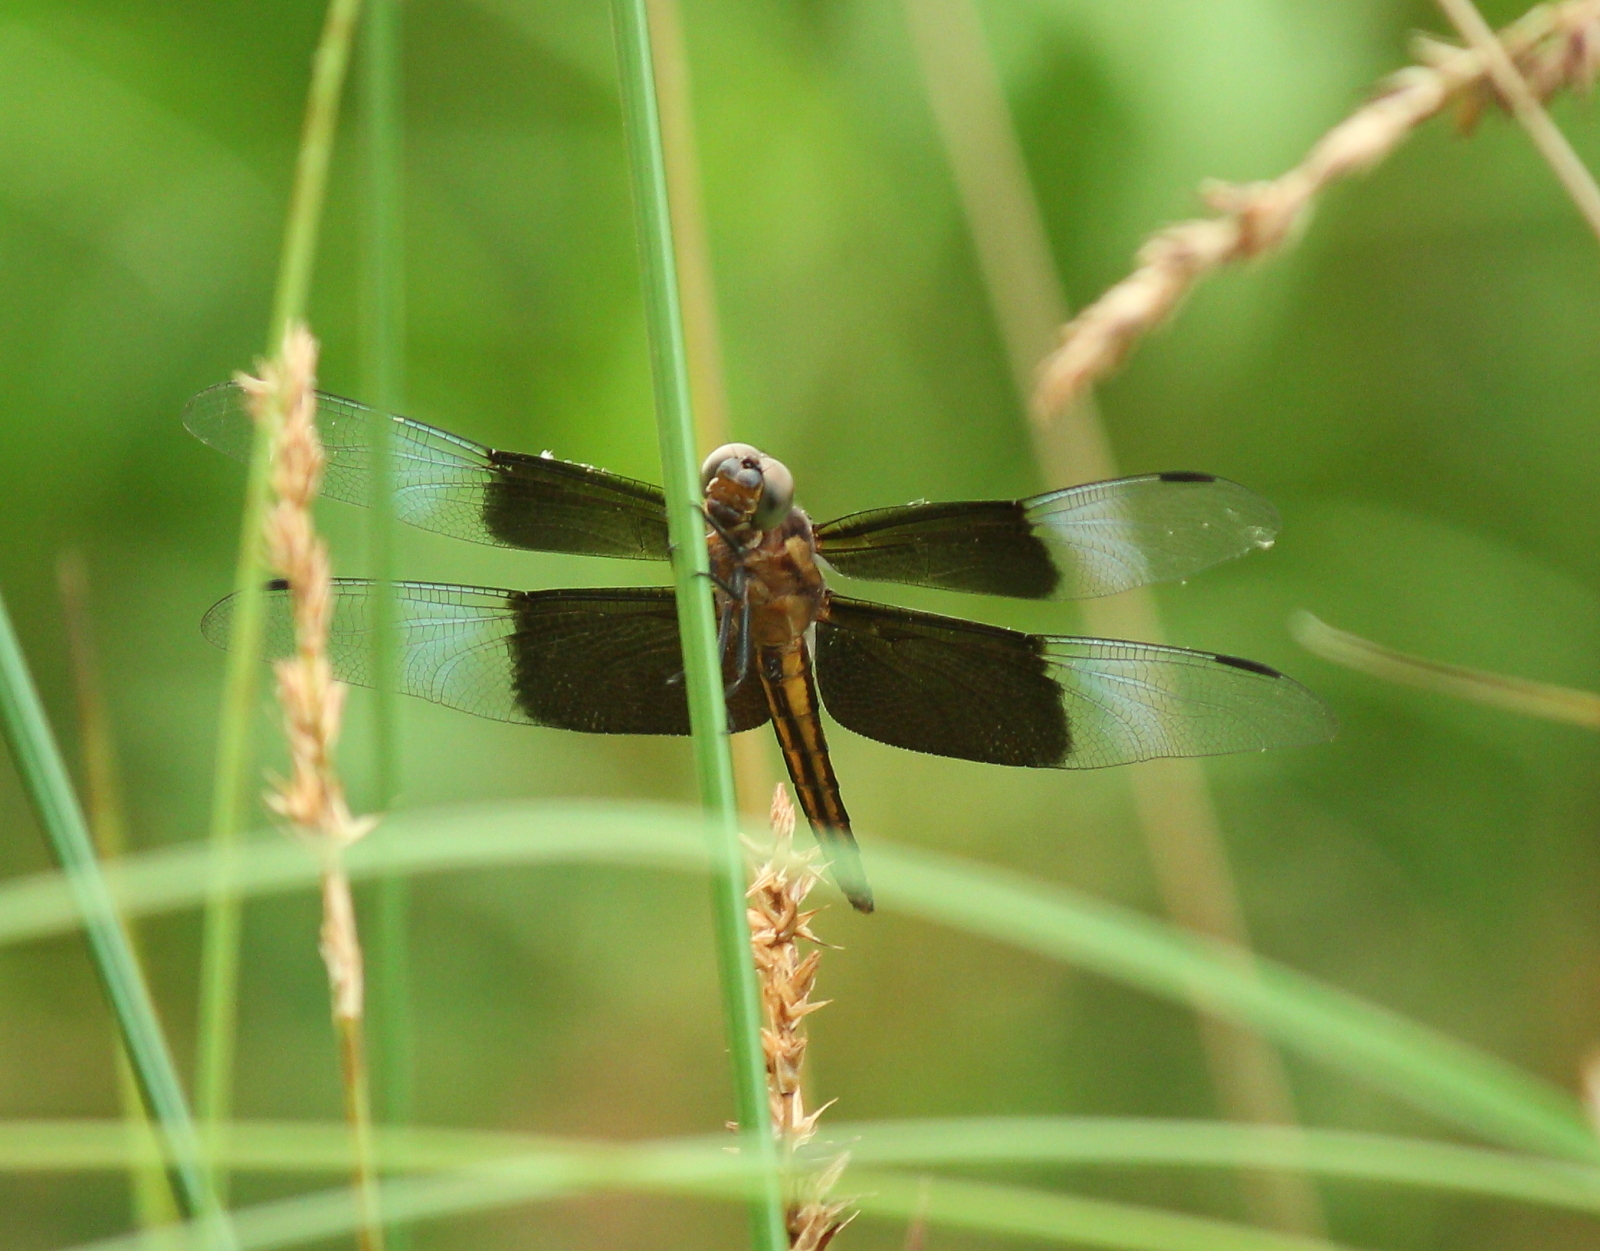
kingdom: Animalia
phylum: Arthropoda
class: Insecta
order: Odonata
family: Libellulidae
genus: Libellula
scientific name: Libellula luctuosa
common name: Widow skimmer
